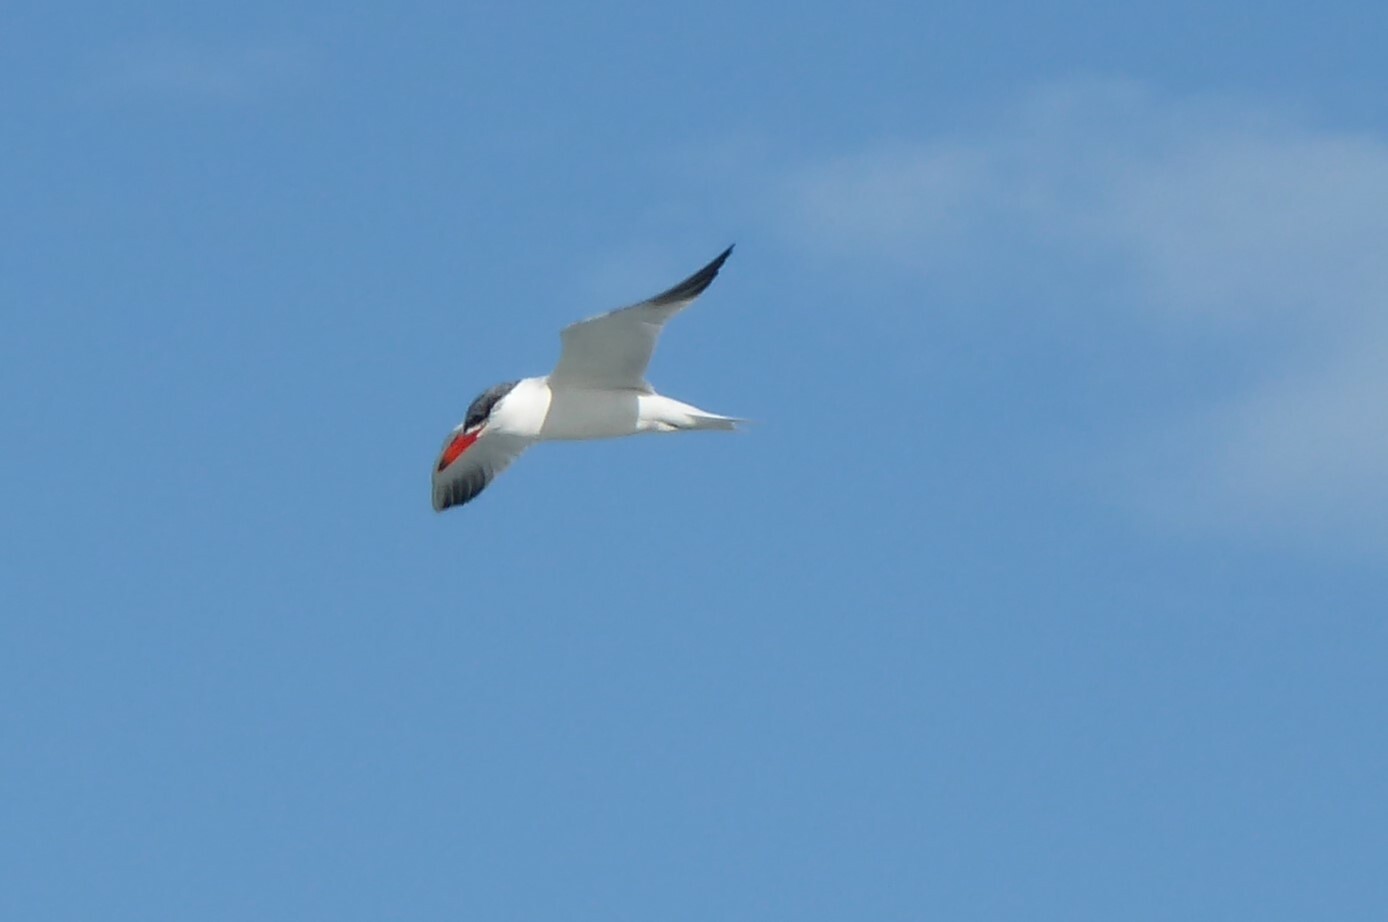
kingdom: Animalia
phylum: Chordata
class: Aves
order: Charadriiformes
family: Laridae
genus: Hydroprogne
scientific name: Hydroprogne caspia
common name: Caspian tern
